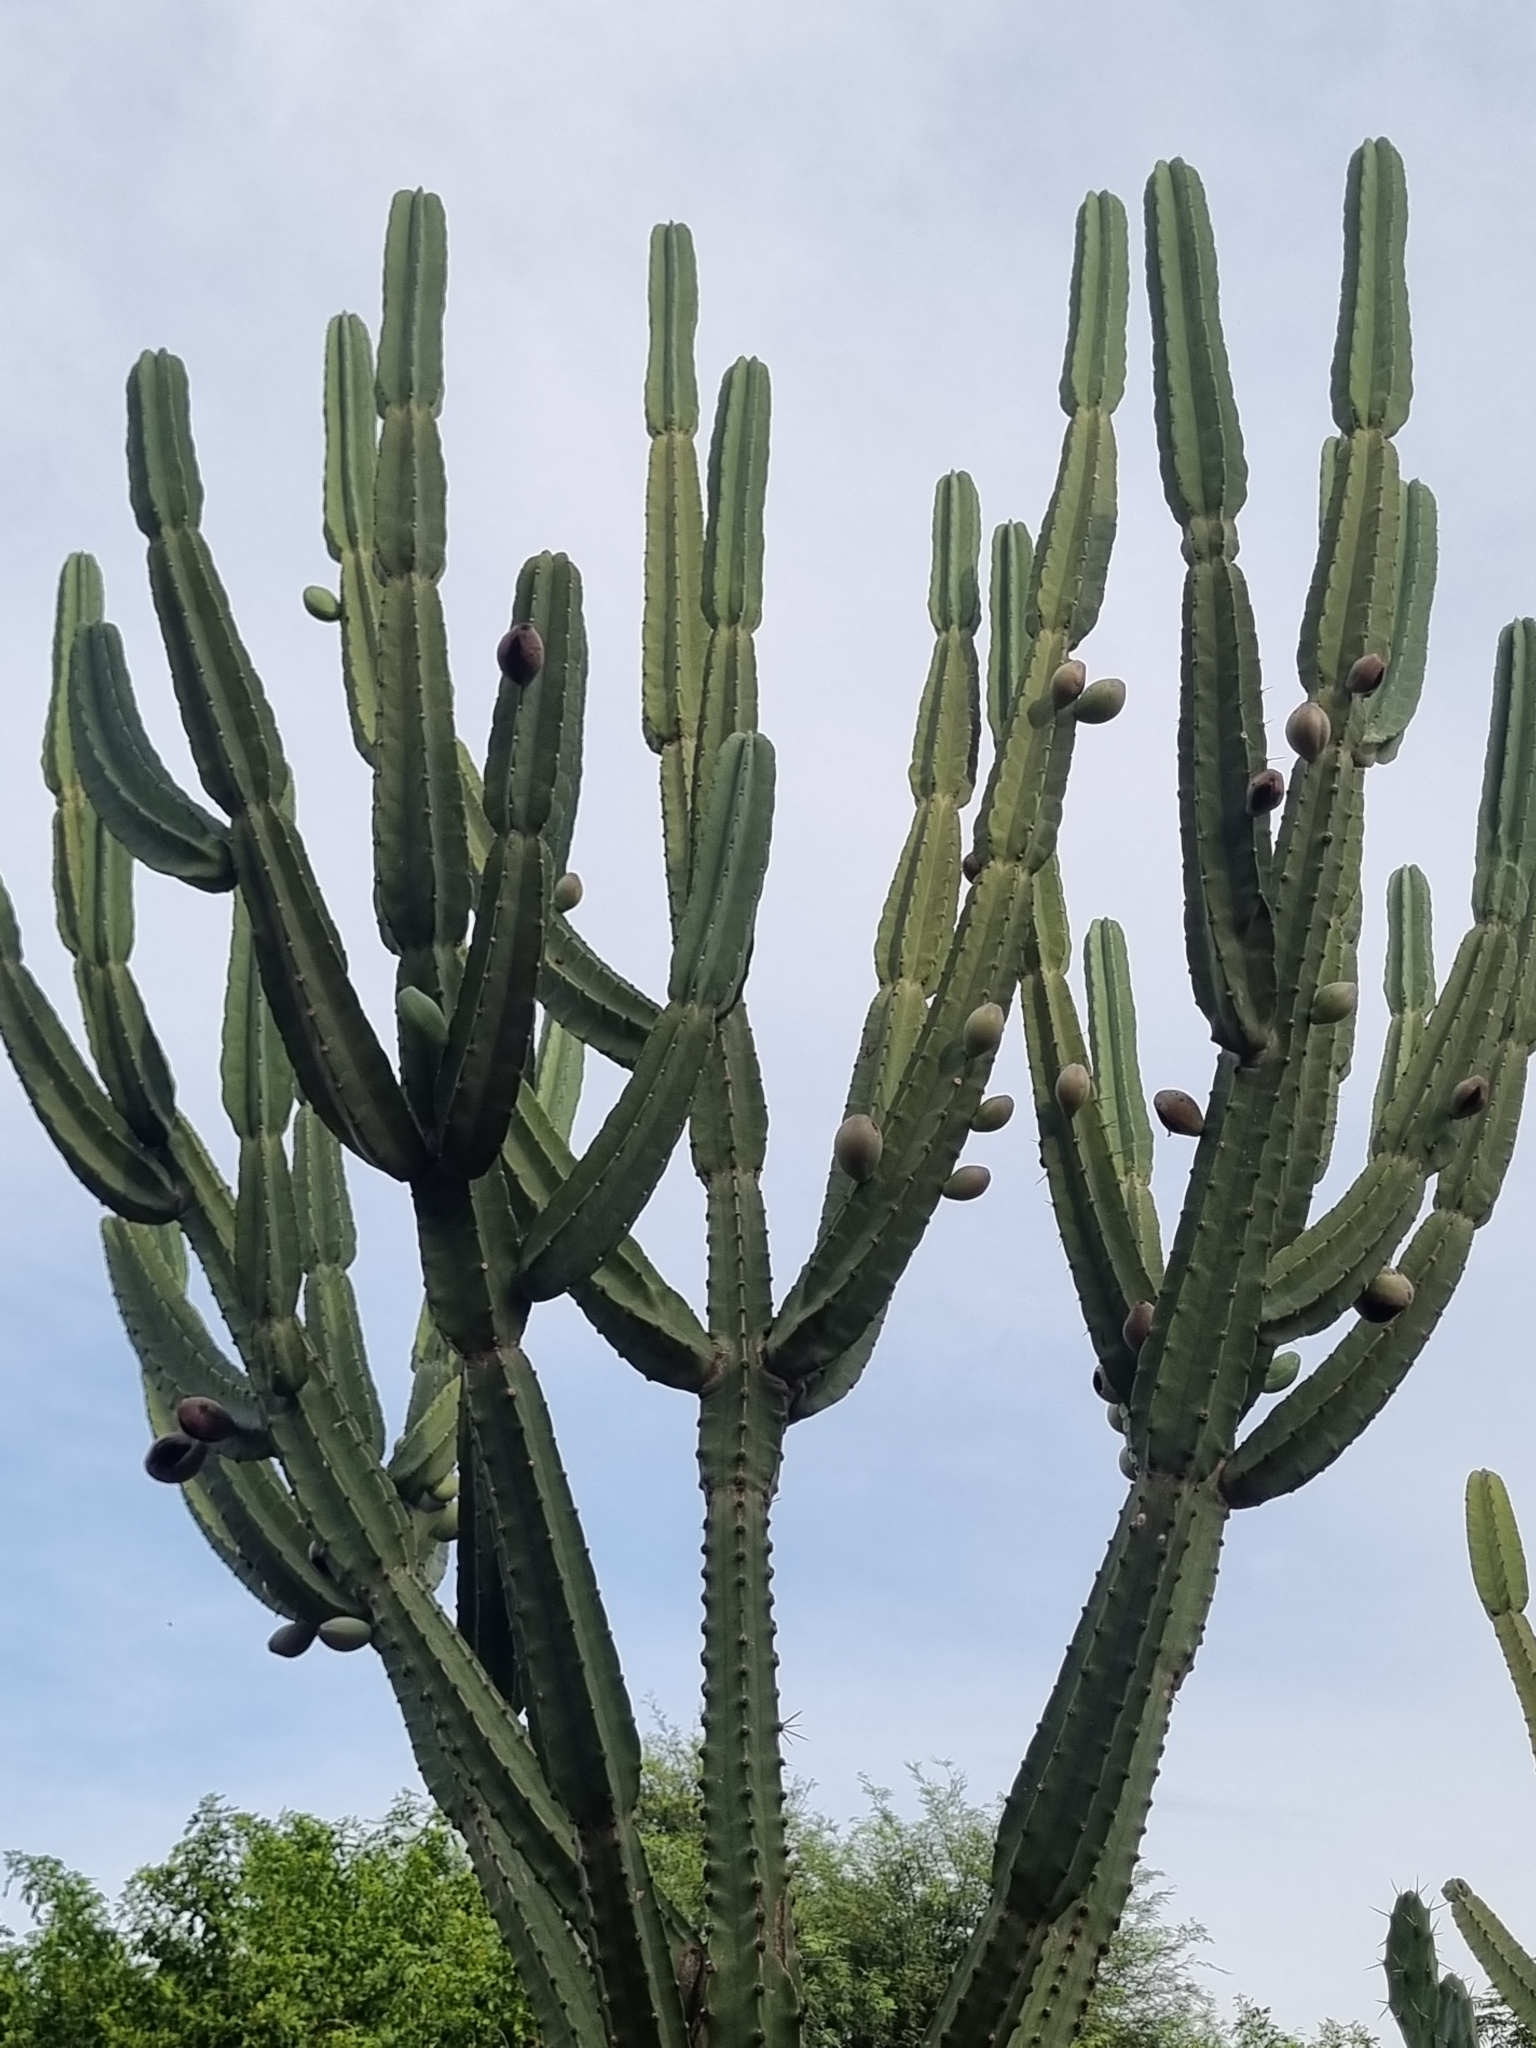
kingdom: Plantae
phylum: Tracheophyta
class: Magnoliopsida
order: Caryophyllales
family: Cactaceae
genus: Cereus
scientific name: Cereus stenogonus
